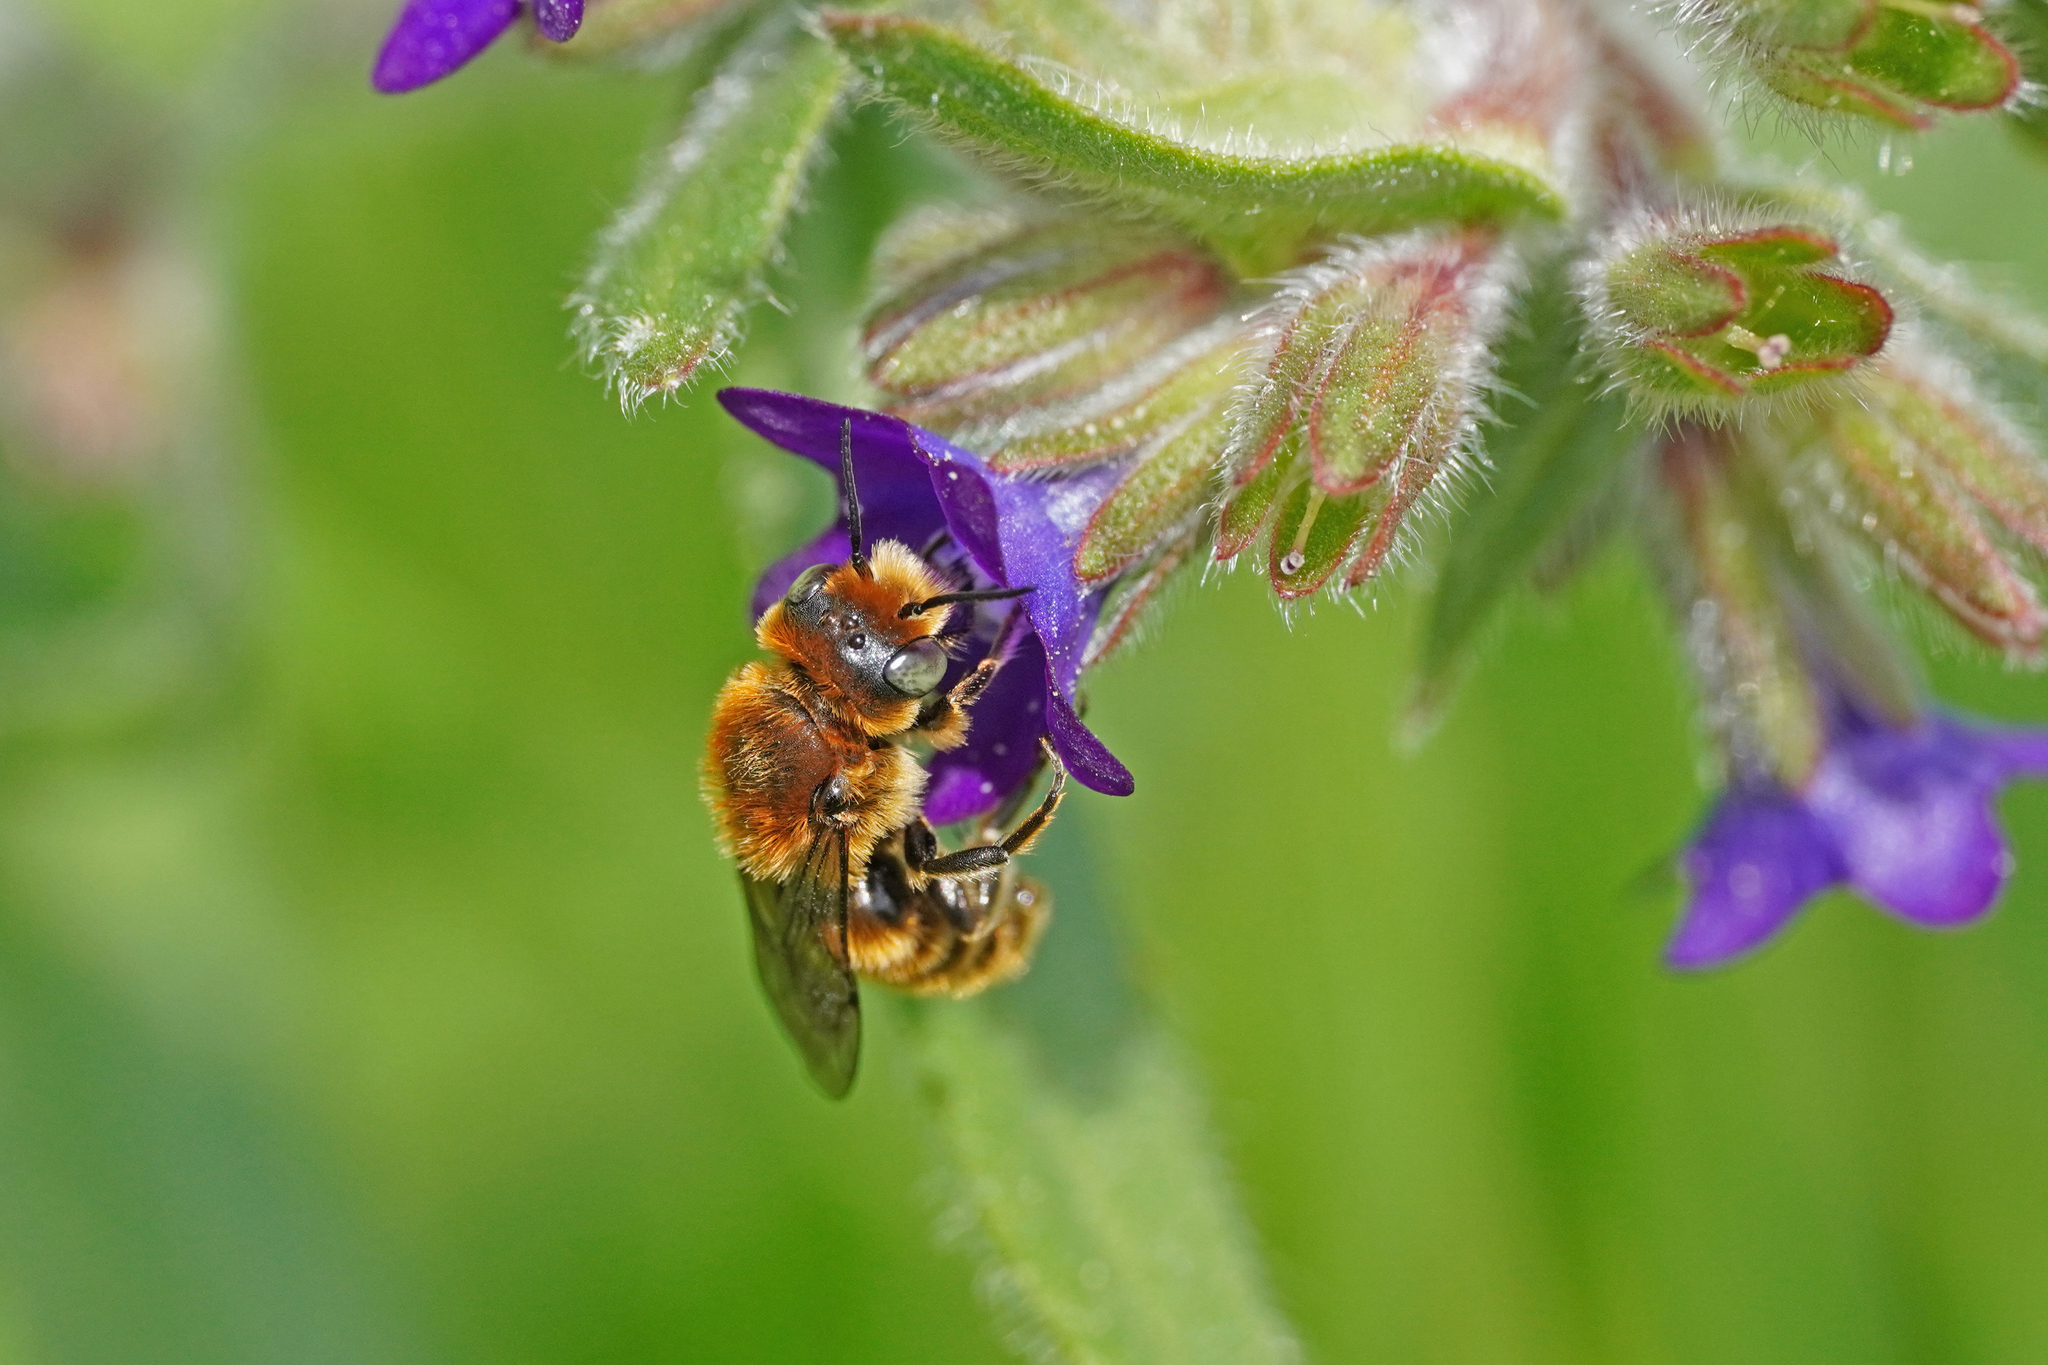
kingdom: Animalia
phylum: Arthropoda
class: Insecta
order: Hymenoptera
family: Megachilidae
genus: Hoplitis
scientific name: Hoplitis adunca
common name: Viper's bugloss mason bee
